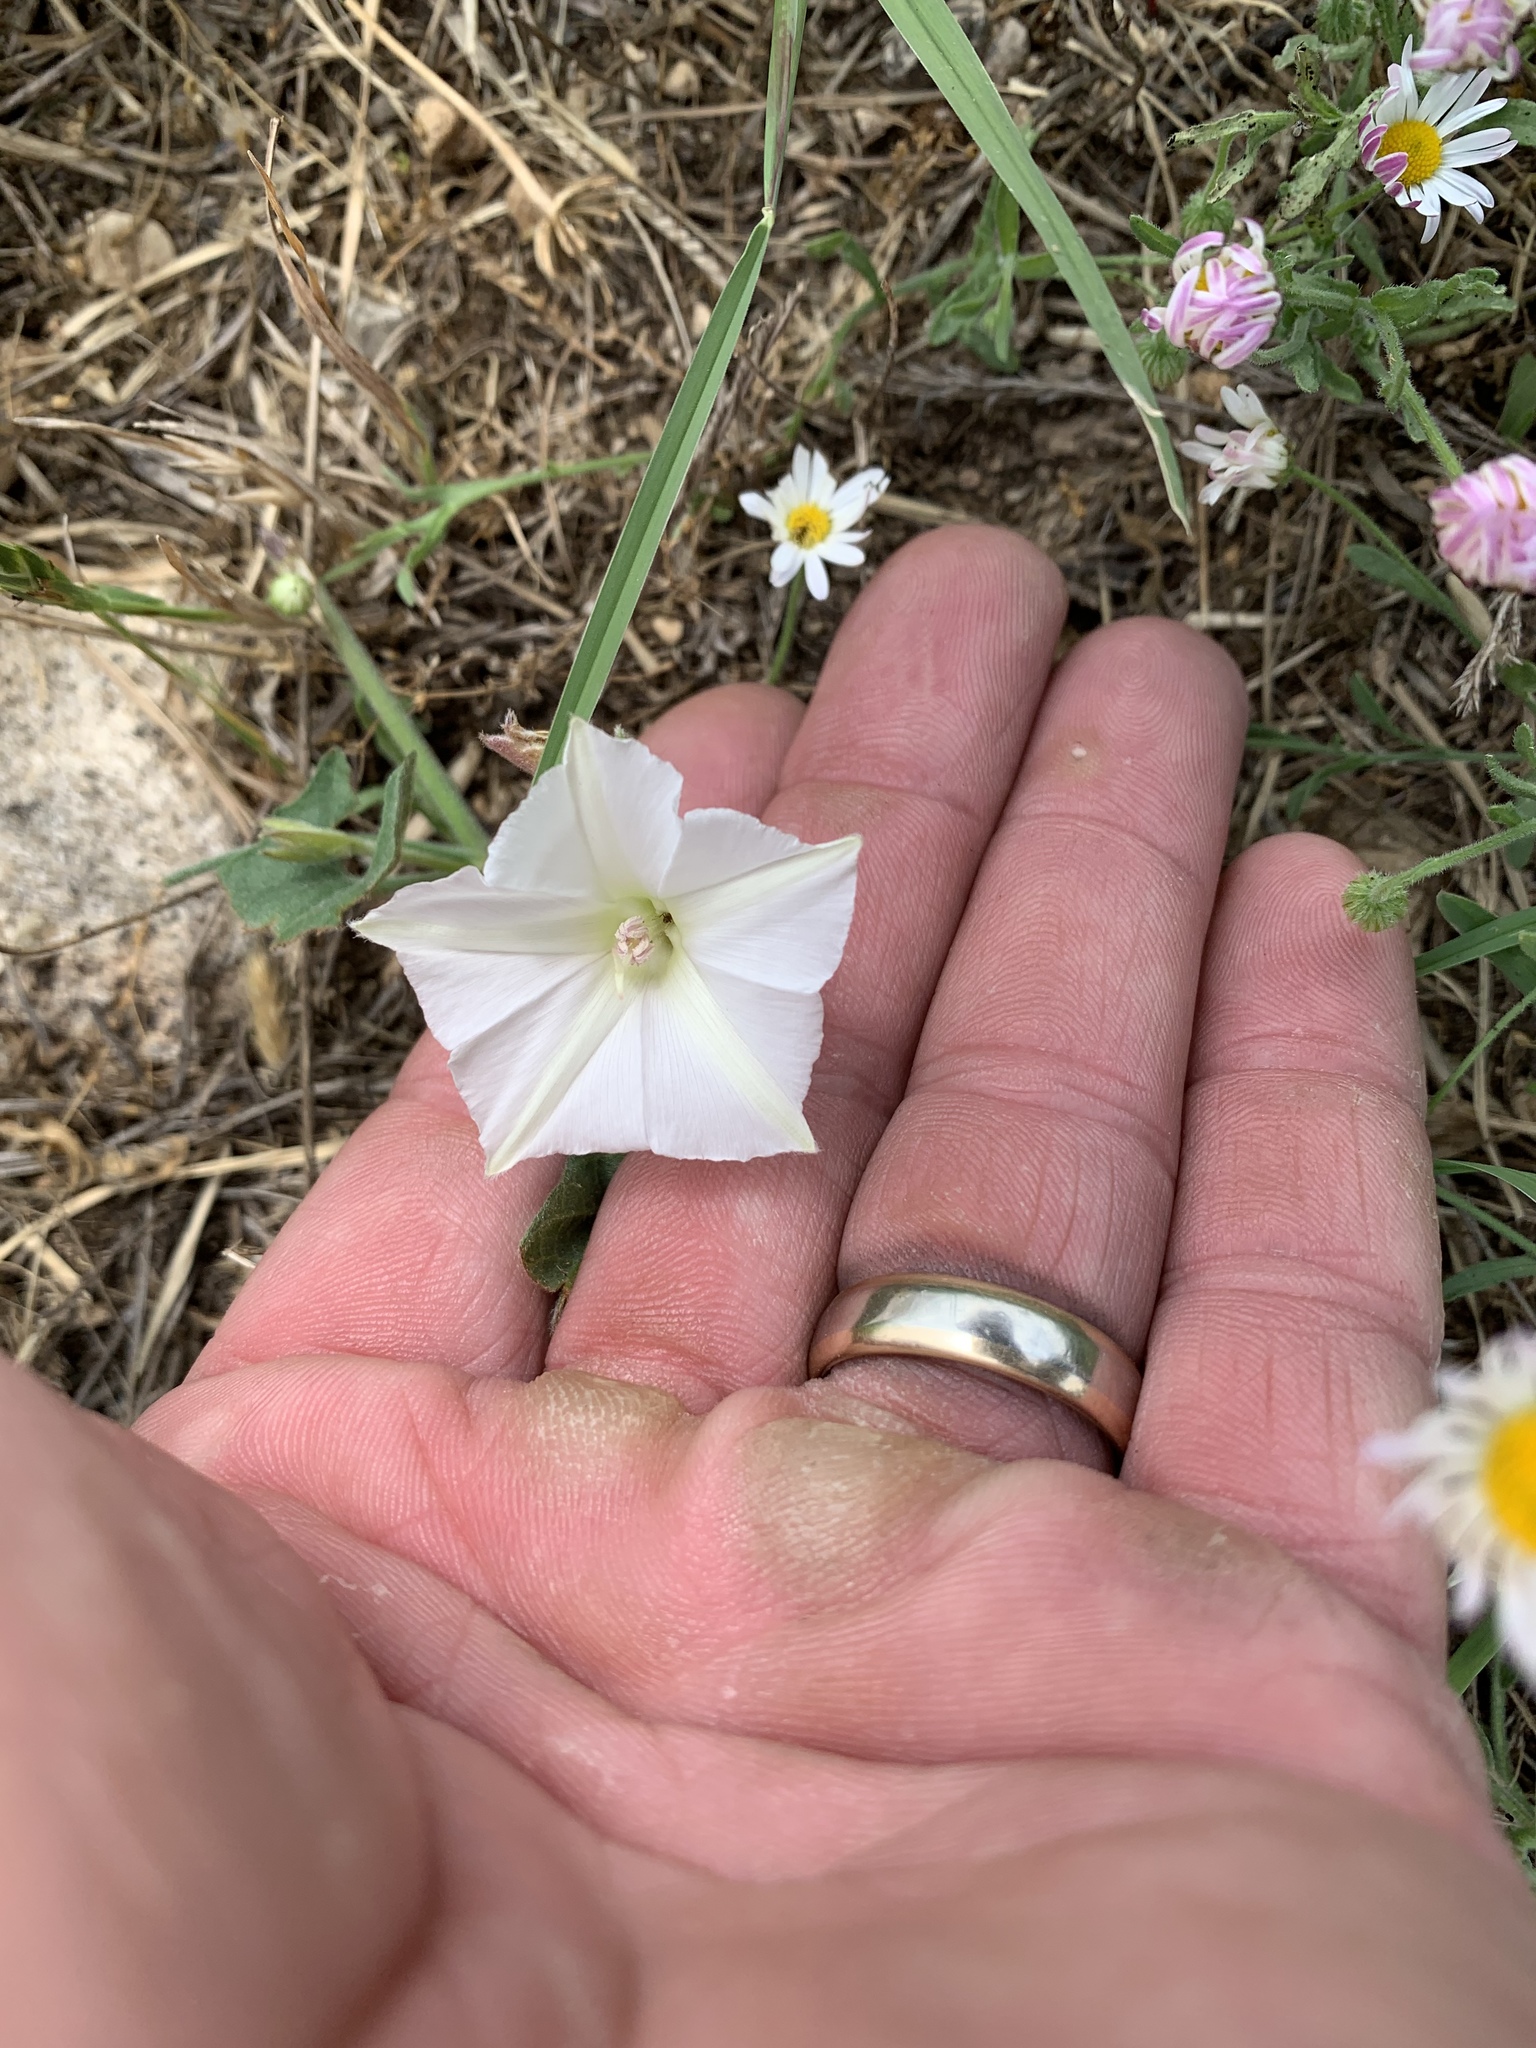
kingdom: Plantae
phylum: Tracheophyta
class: Magnoliopsida
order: Solanales
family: Convolvulaceae
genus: Convolvulus
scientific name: Convolvulus equitans
